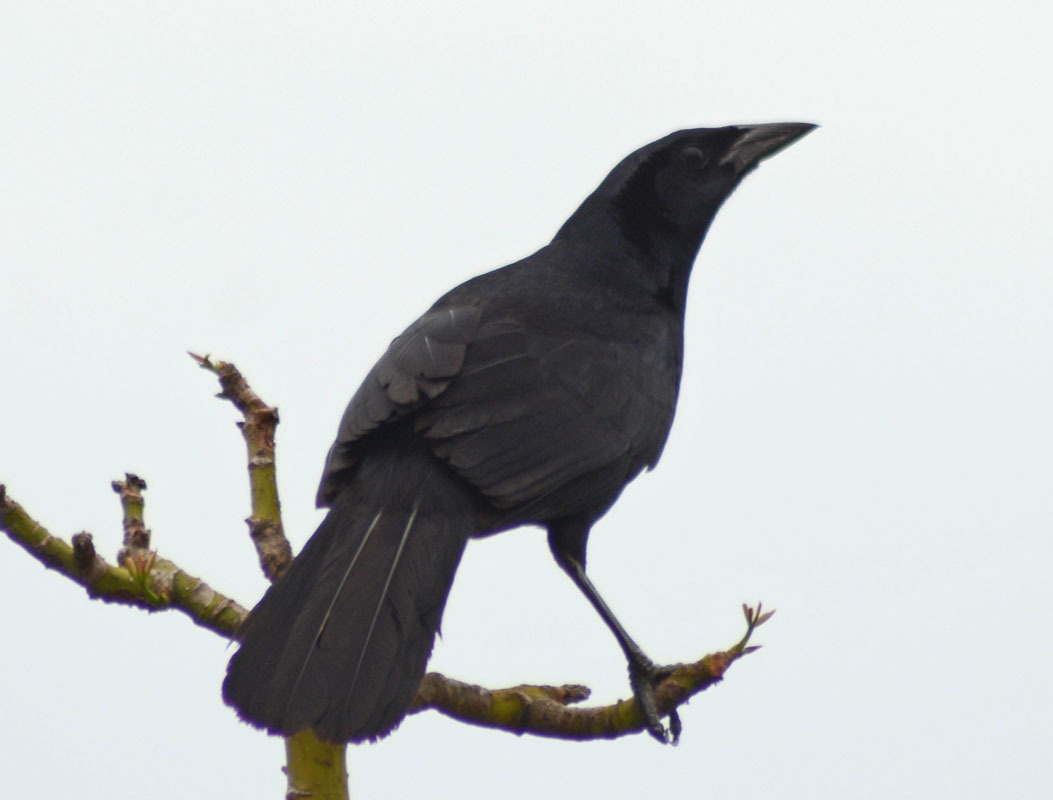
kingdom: Animalia
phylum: Chordata
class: Aves
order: Passeriformes
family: Icteridae
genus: Dives
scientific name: Dives dives
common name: Melodious blackbird
